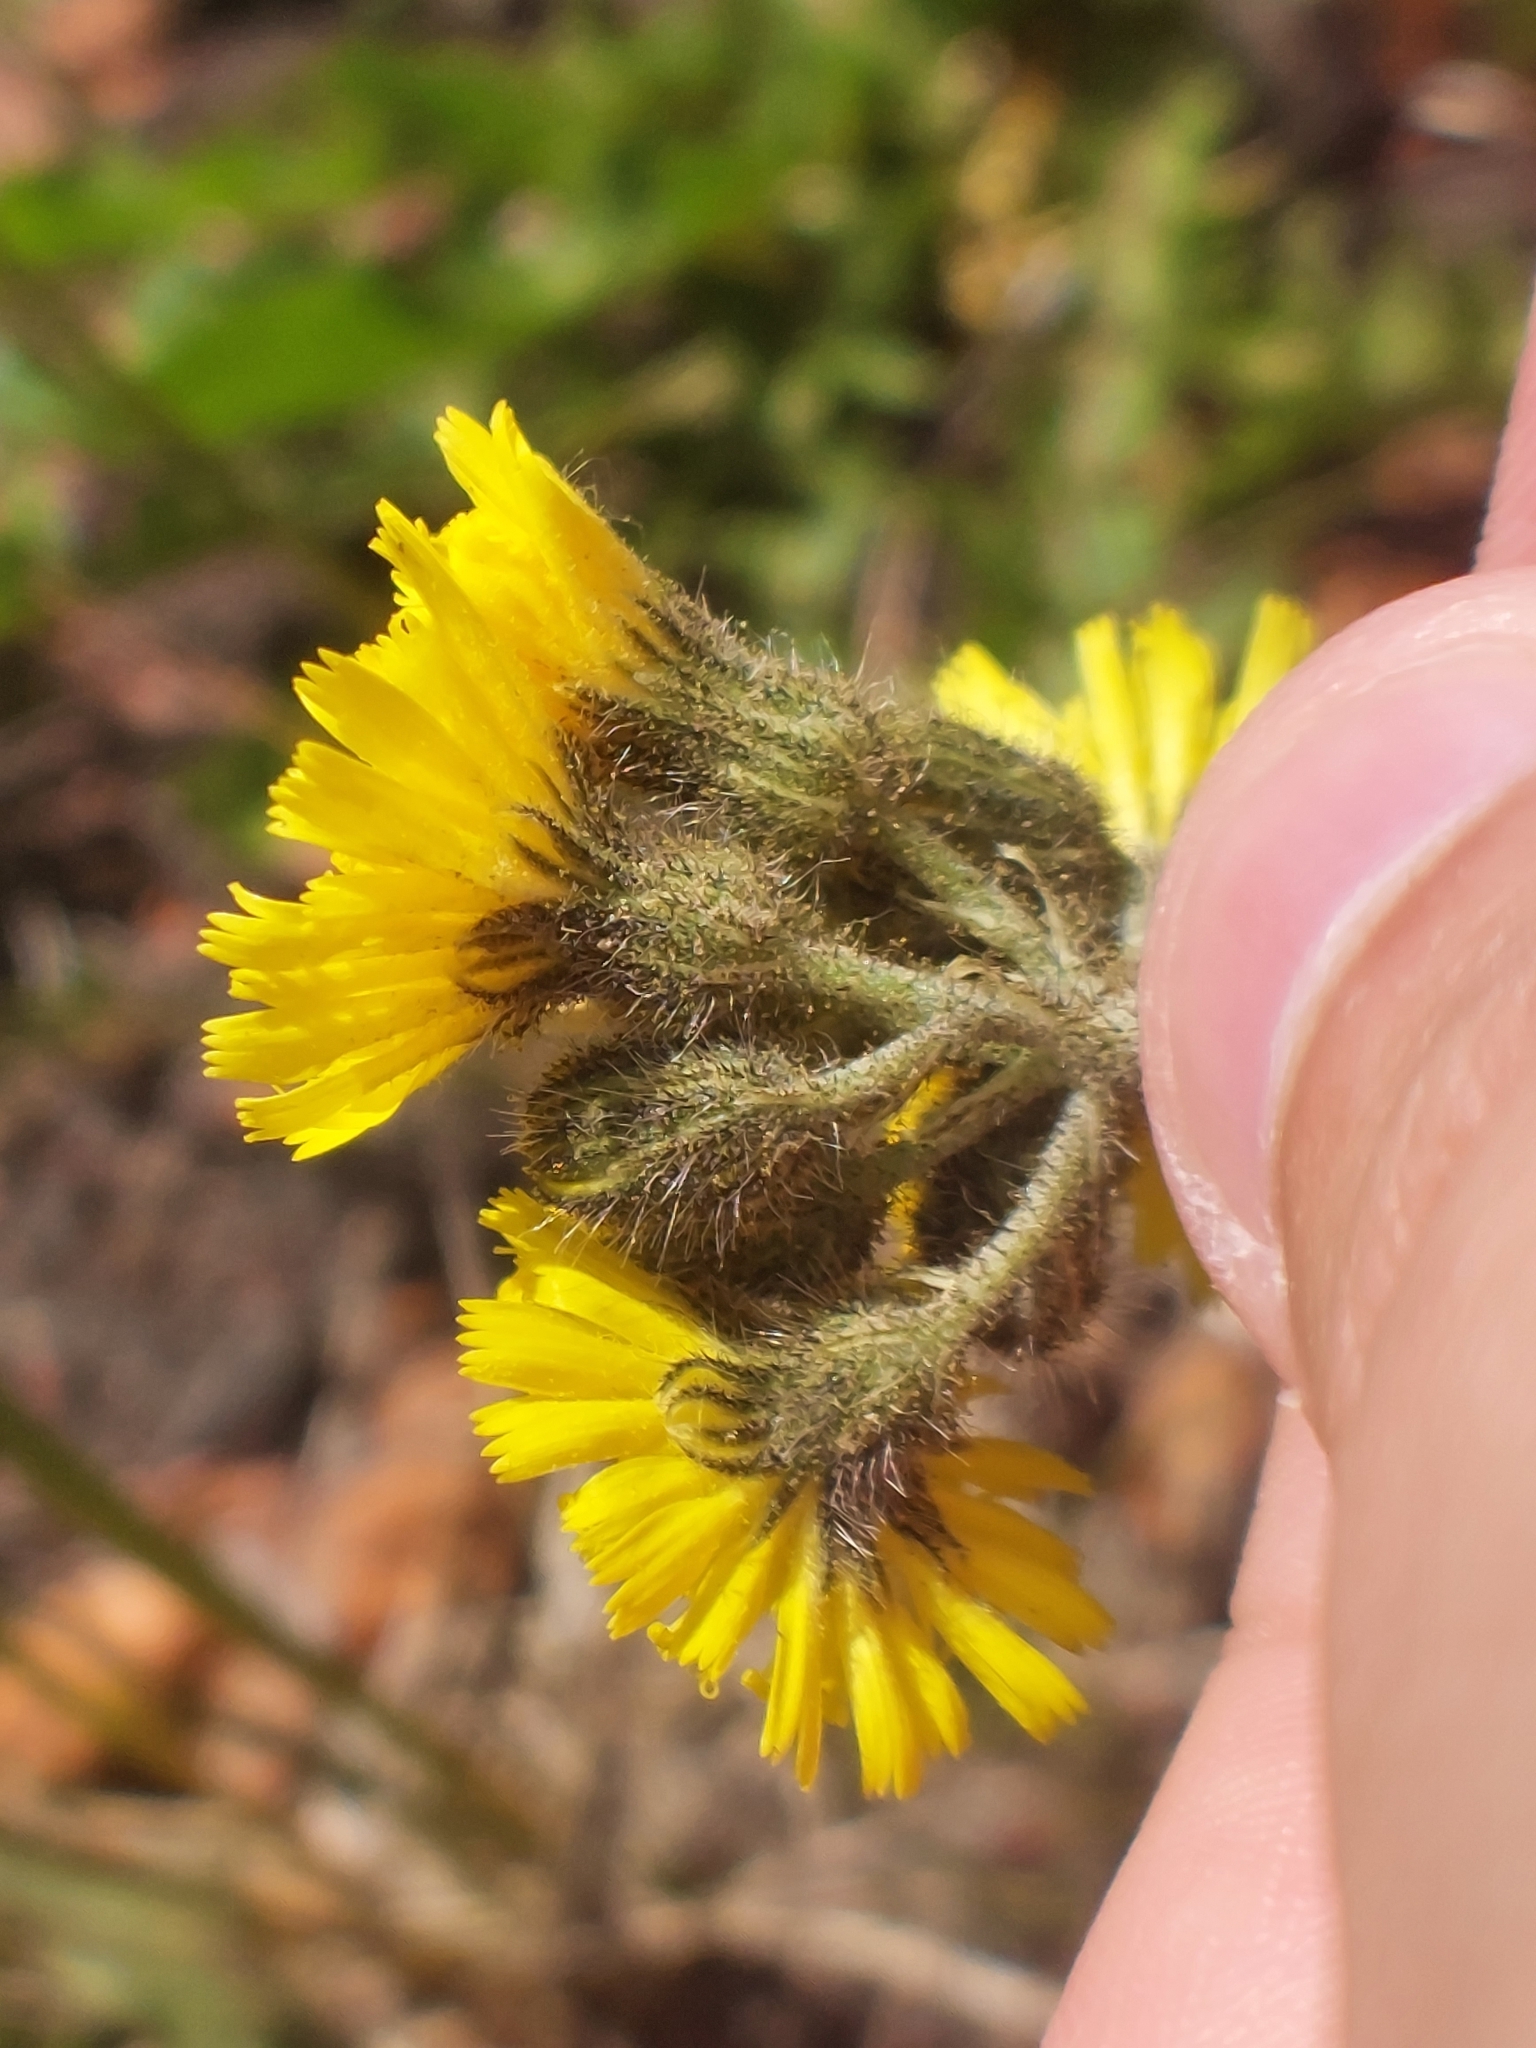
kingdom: Plantae
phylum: Tracheophyta
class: Magnoliopsida
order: Asterales
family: Asteraceae
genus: Pilosella
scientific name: Pilosella caespitosa
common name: Yellow fox-and-cubs
